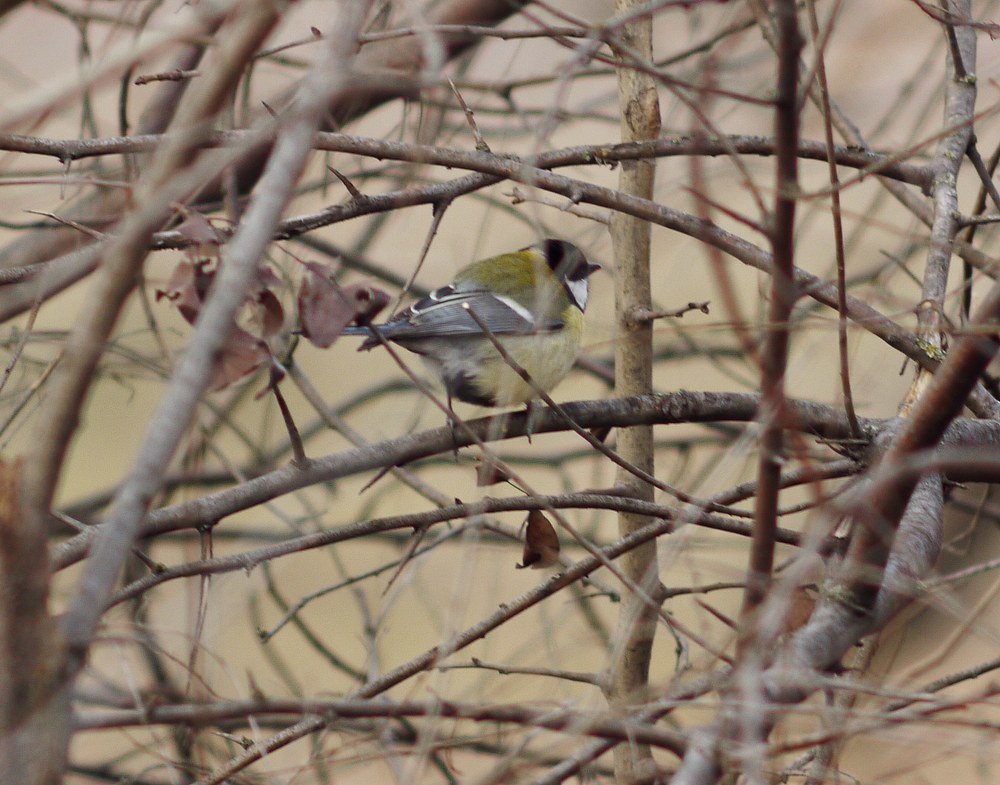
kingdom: Animalia
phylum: Chordata
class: Aves
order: Passeriformes
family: Paridae
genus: Parus
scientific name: Parus major
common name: Great tit
